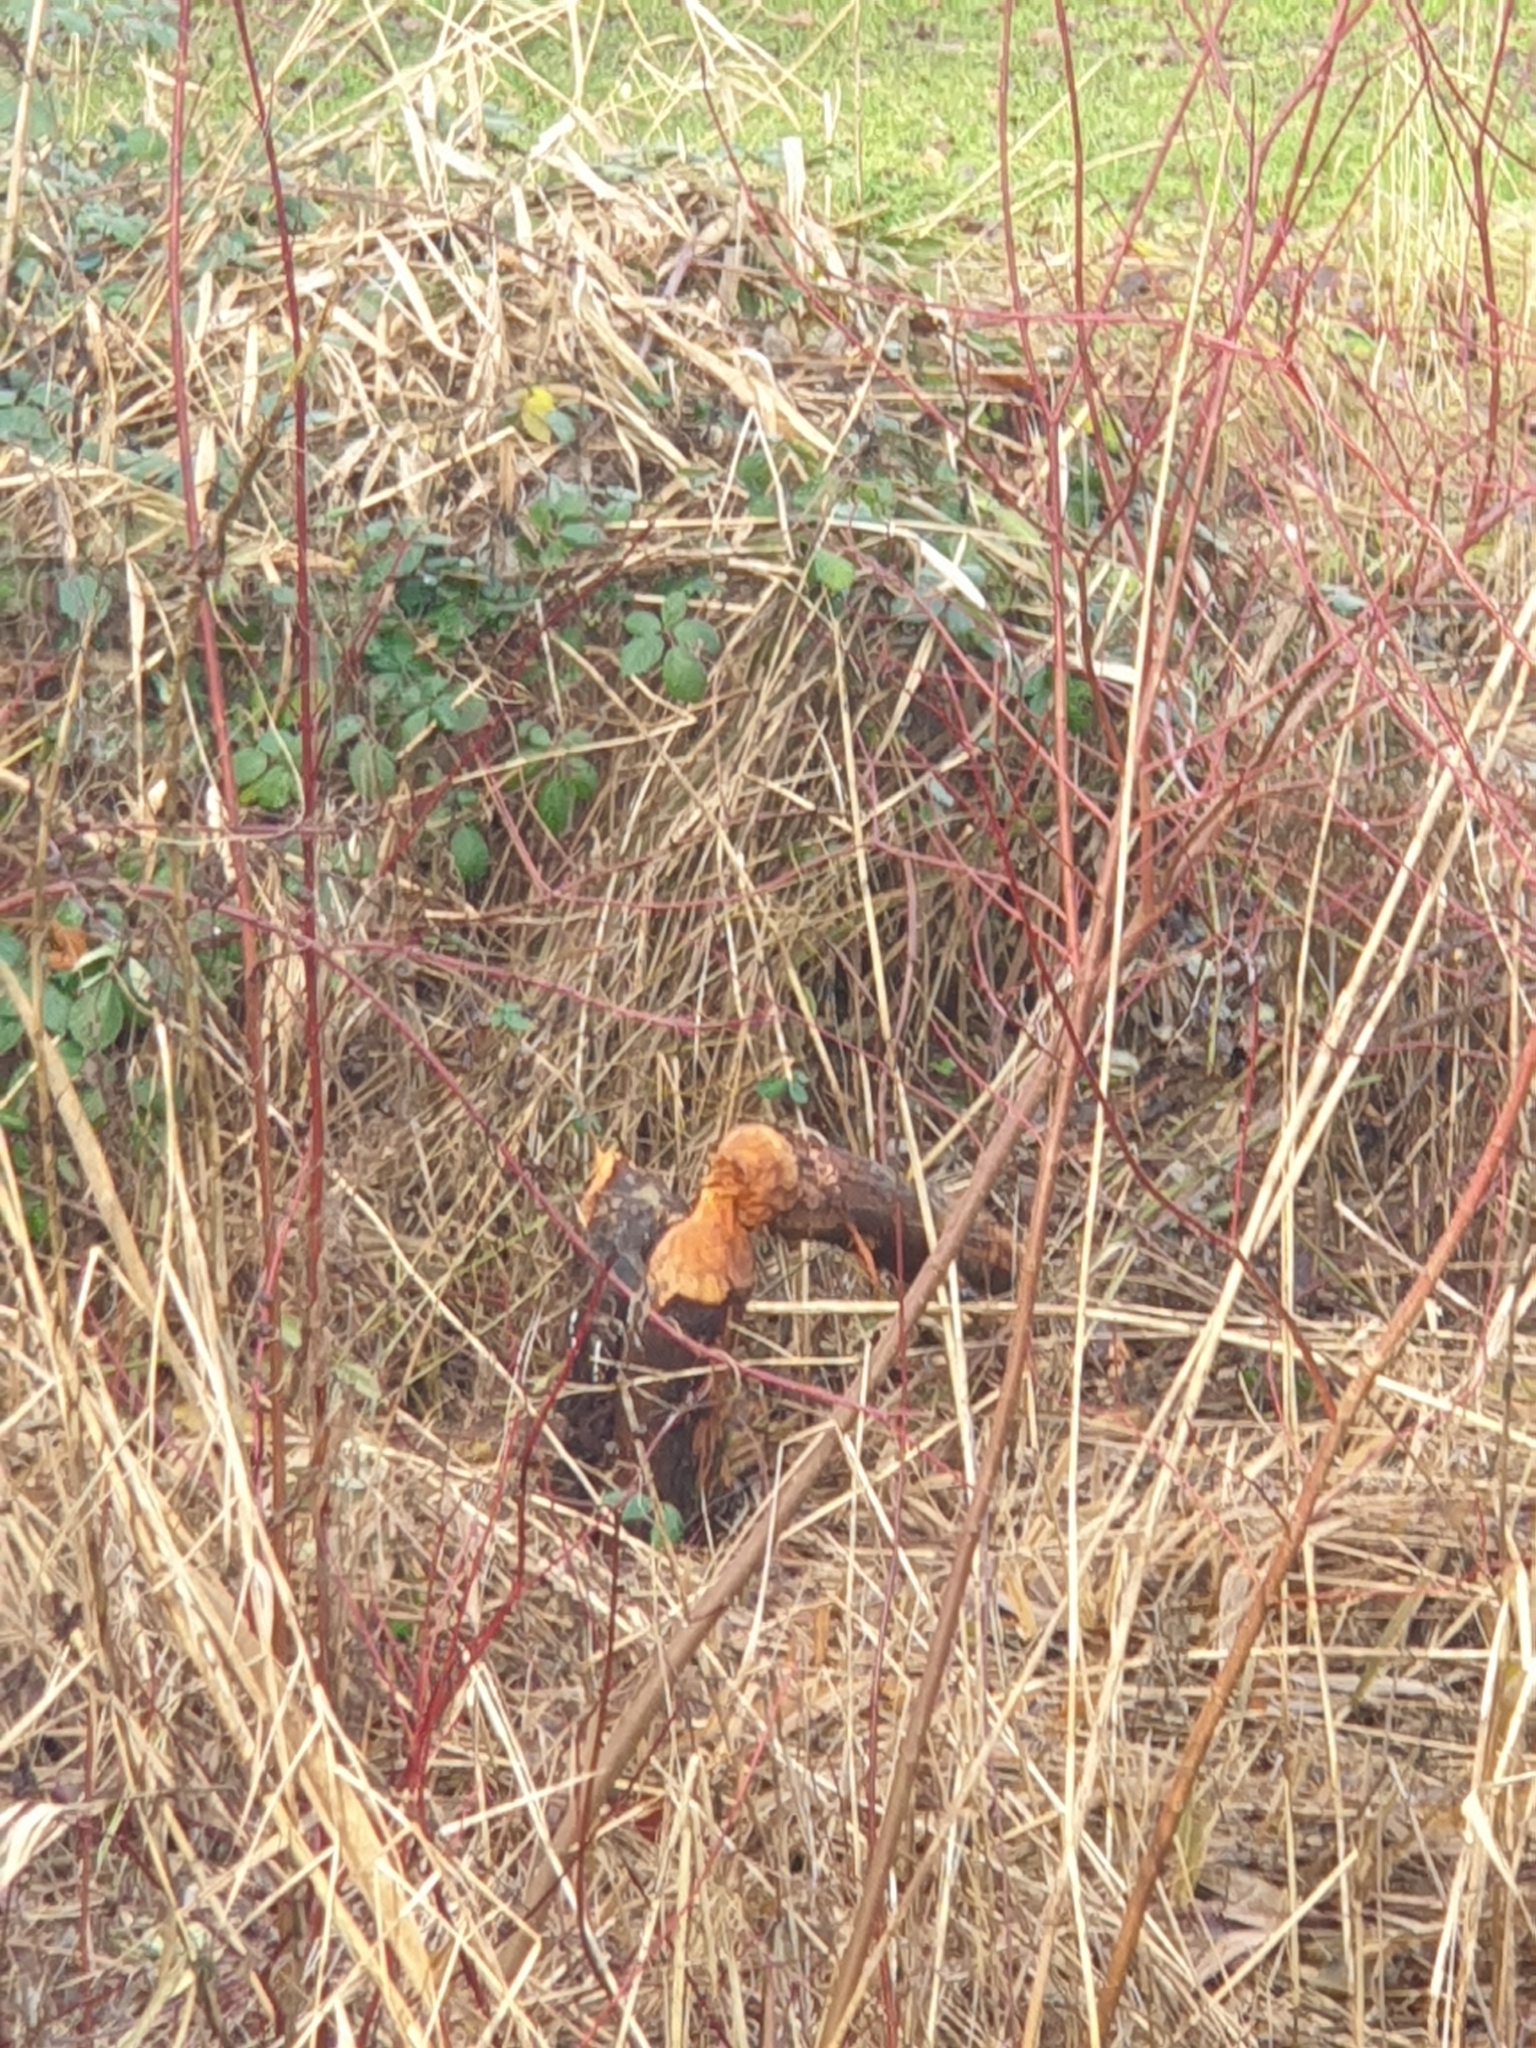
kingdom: Animalia
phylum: Chordata
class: Mammalia
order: Rodentia
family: Castoridae
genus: Castor
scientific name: Castor fiber
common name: Eurasian beaver
